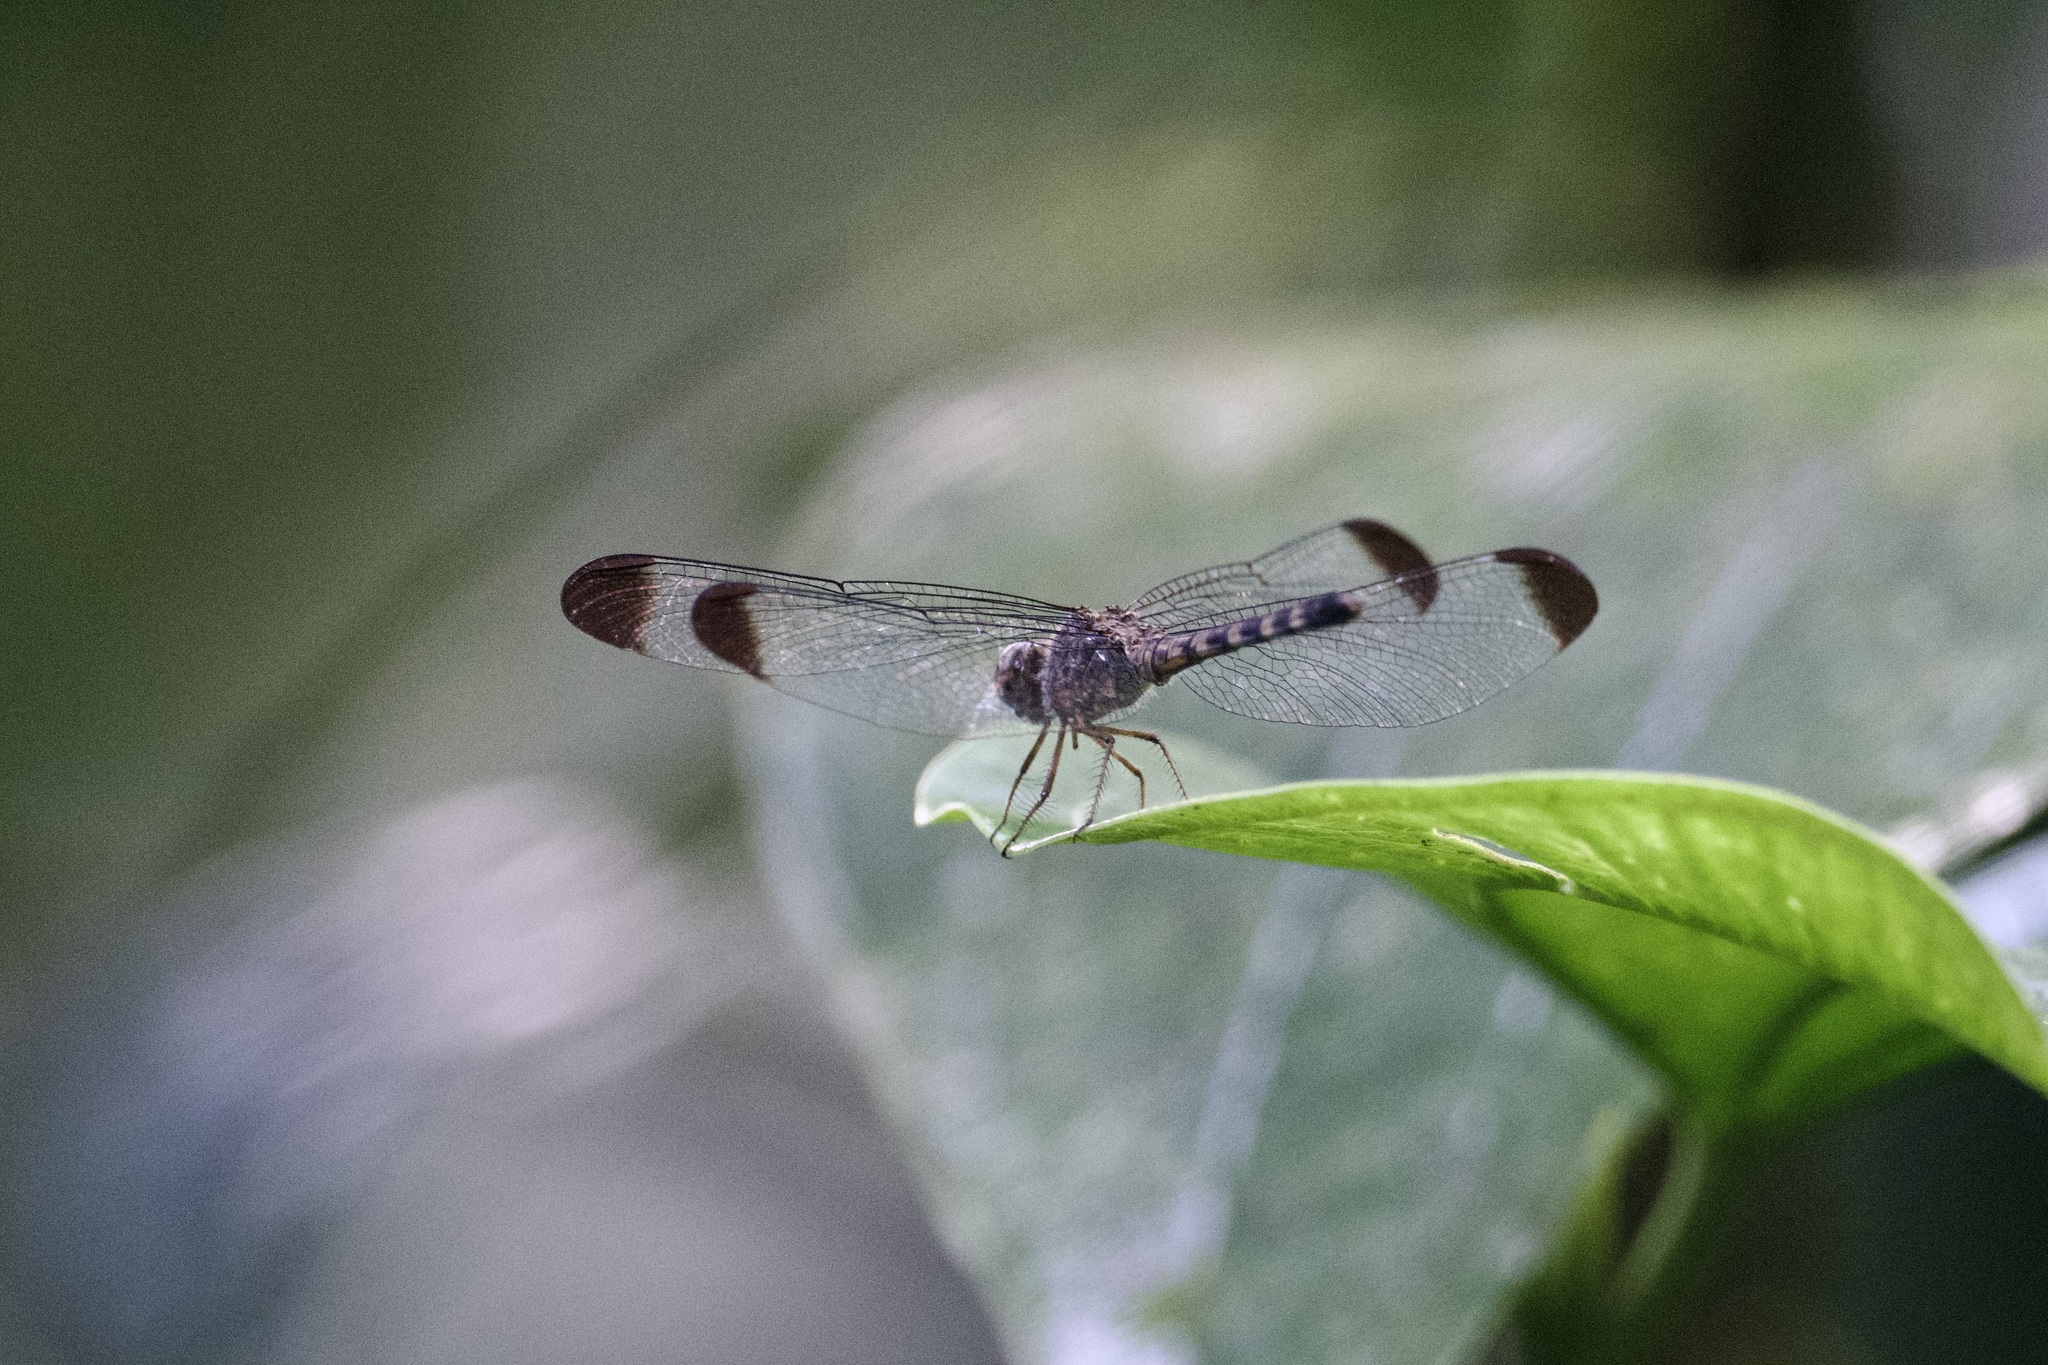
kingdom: Animalia
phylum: Arthropoda
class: Insecta
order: Odonata
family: Libellulidae
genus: Uracis
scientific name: Uracis imbuta
